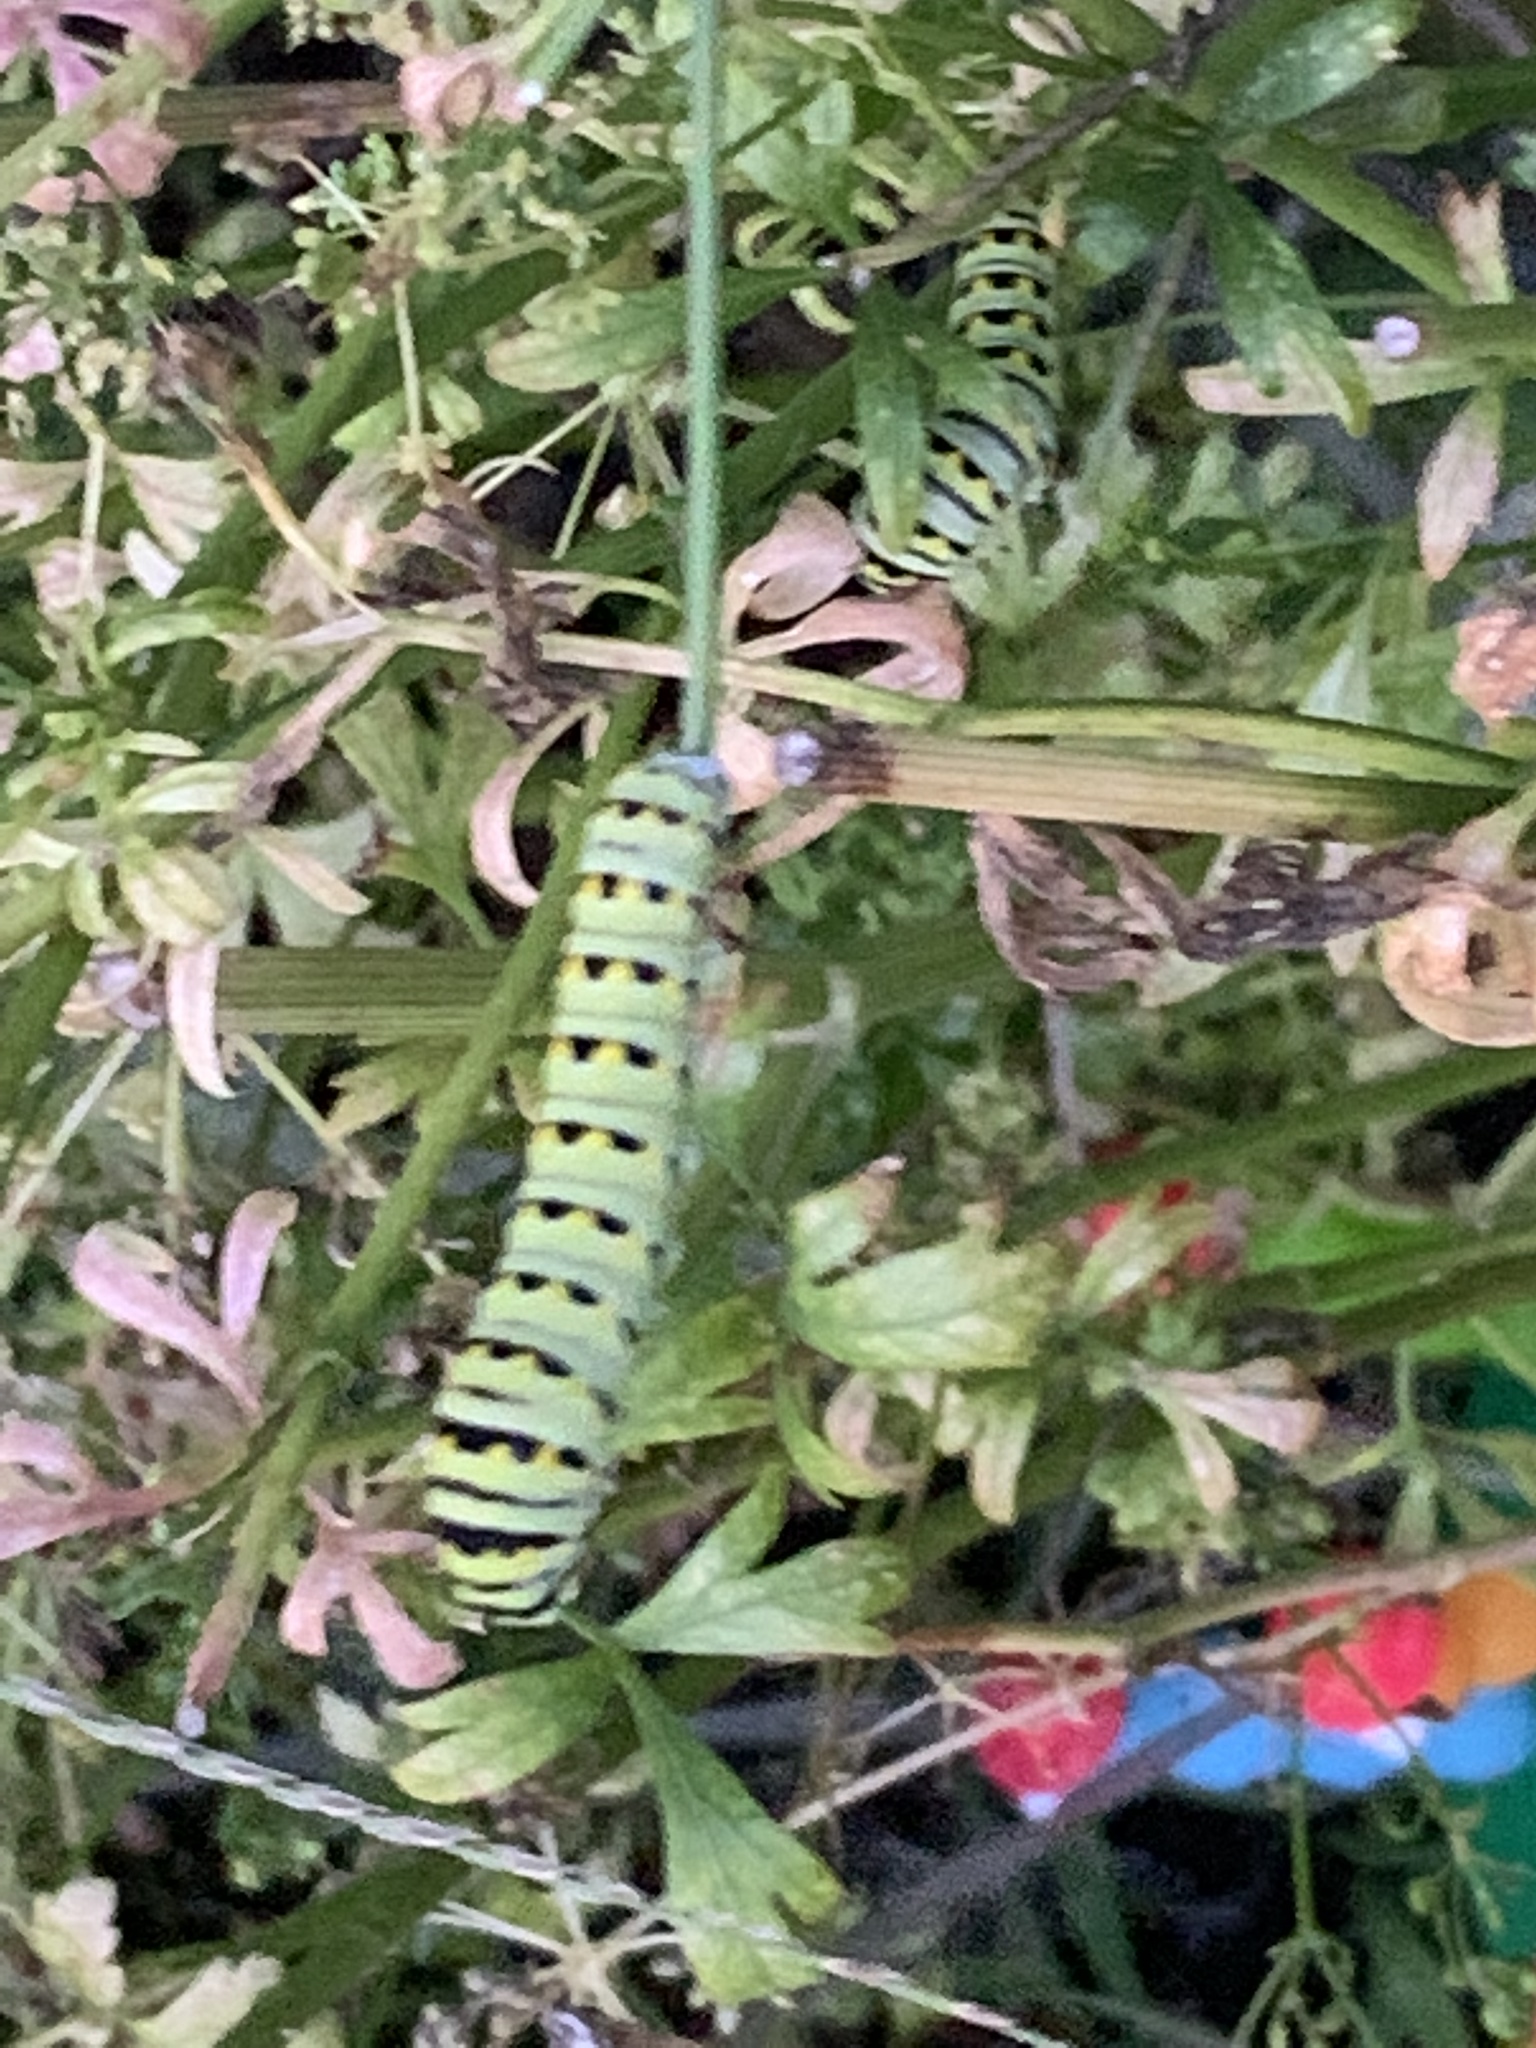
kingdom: Animalia
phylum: Arthropoda
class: Insecta
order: Lepidoptera
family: Papilionidae
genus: Papilio
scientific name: Papilio polyxenes
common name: Black swallowtail
